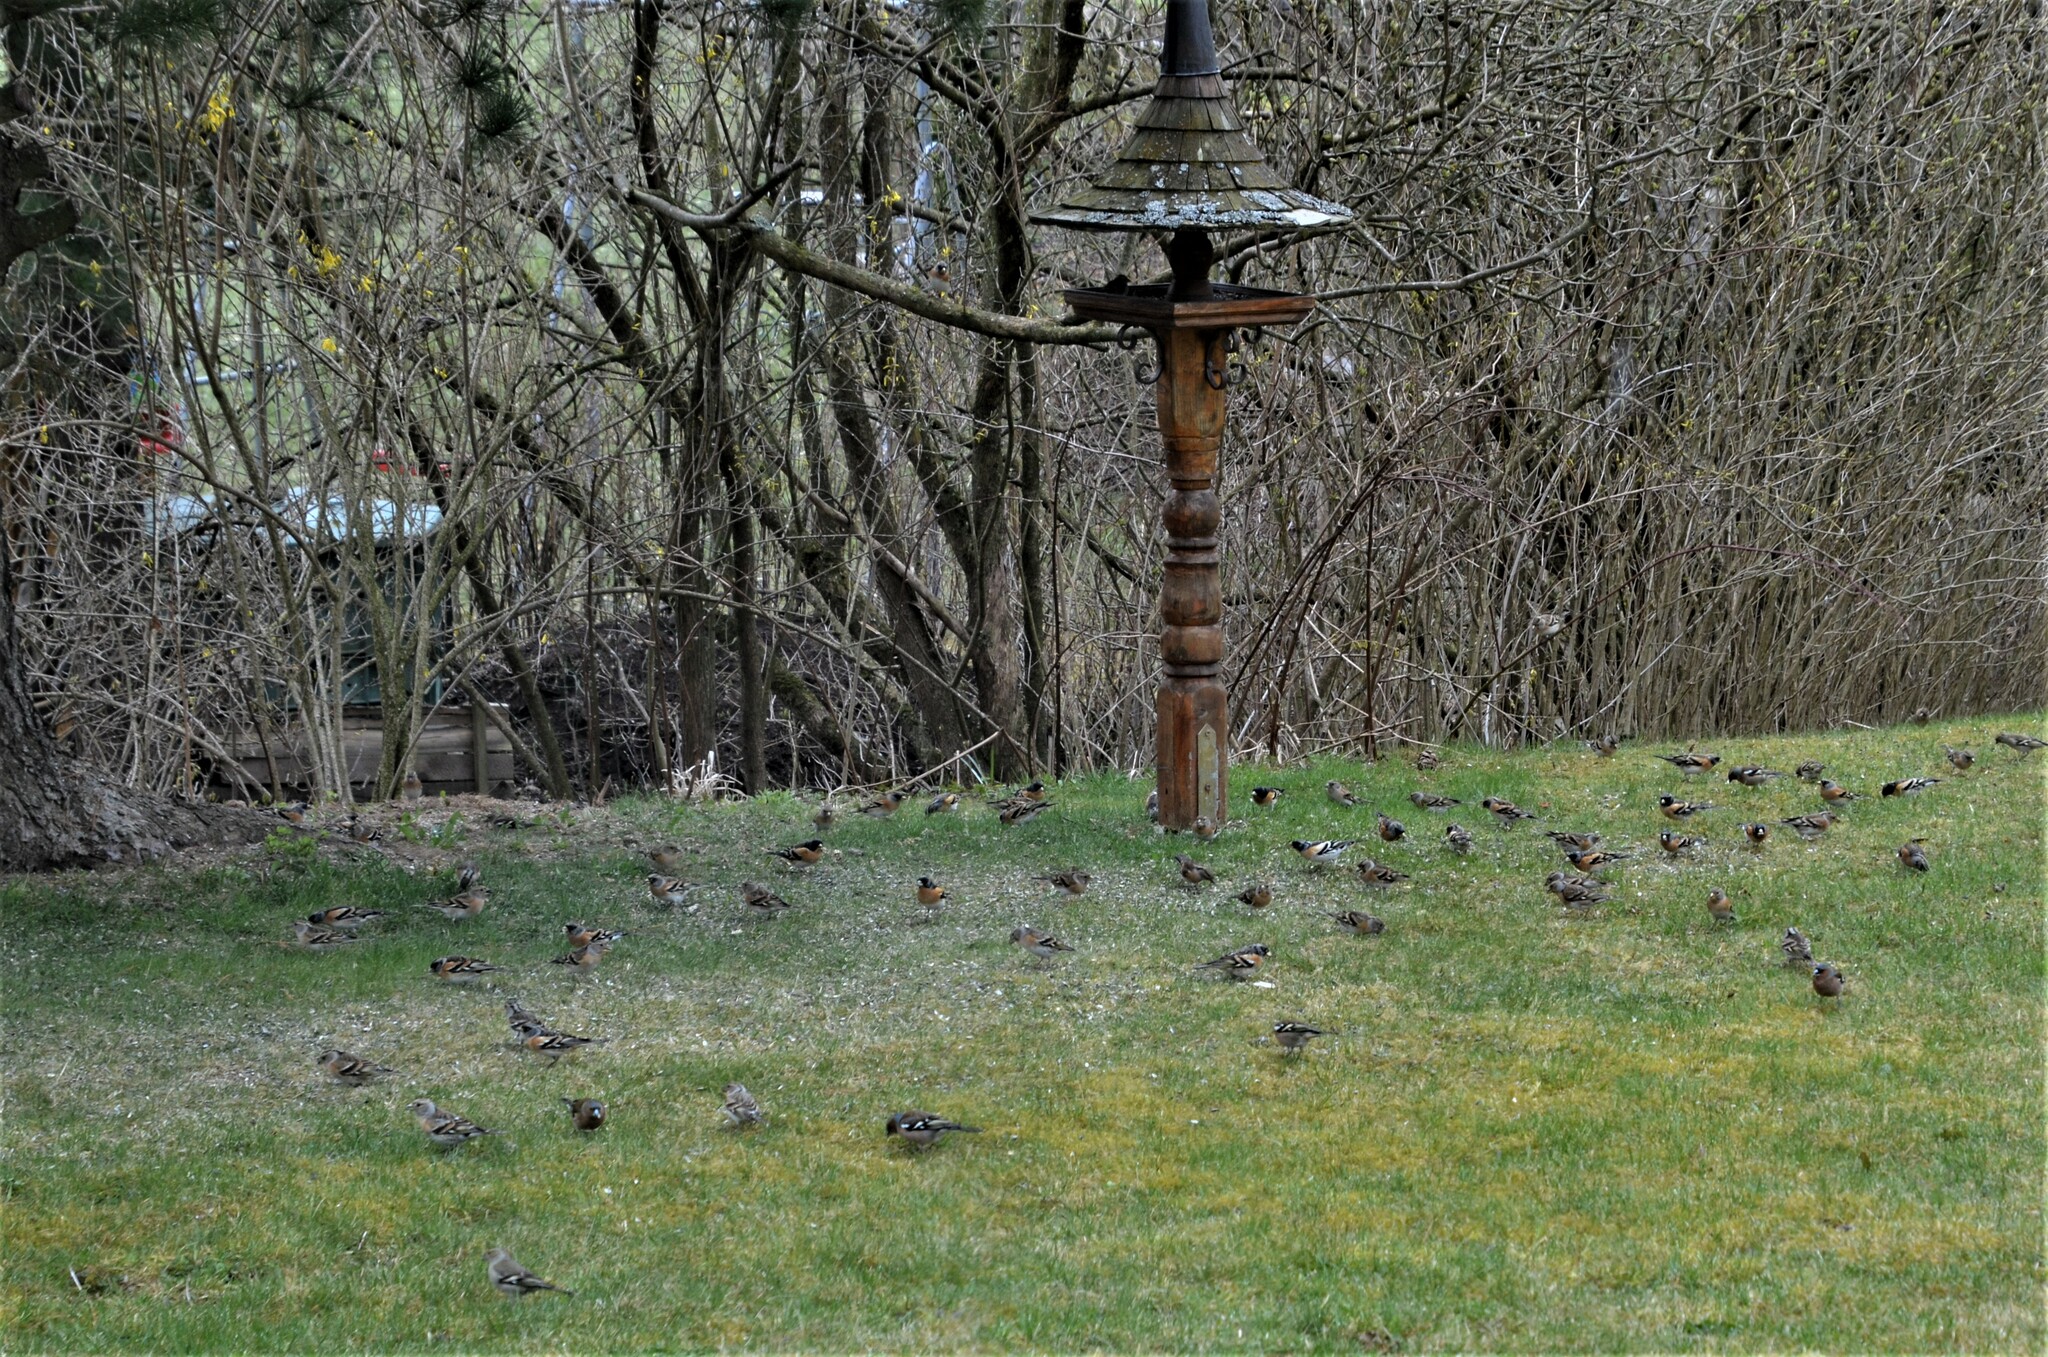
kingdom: Animalia
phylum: Chordata
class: Aves
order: Passeriformes
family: Fringillidae
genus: Fringilla
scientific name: Fringilla montifringilla
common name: Brambling
